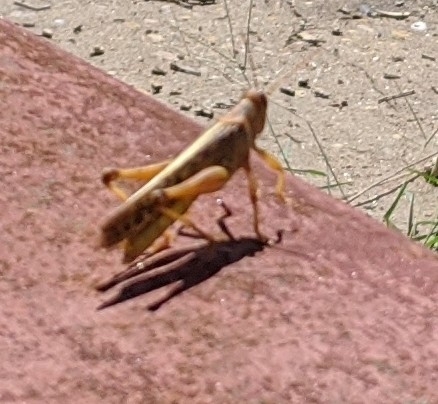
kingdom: Animalia
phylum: Arthropoda
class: Insecta
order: Orthoptera
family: Acrididae
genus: Schistocerca
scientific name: Schistocerca americana
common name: American bird locust
